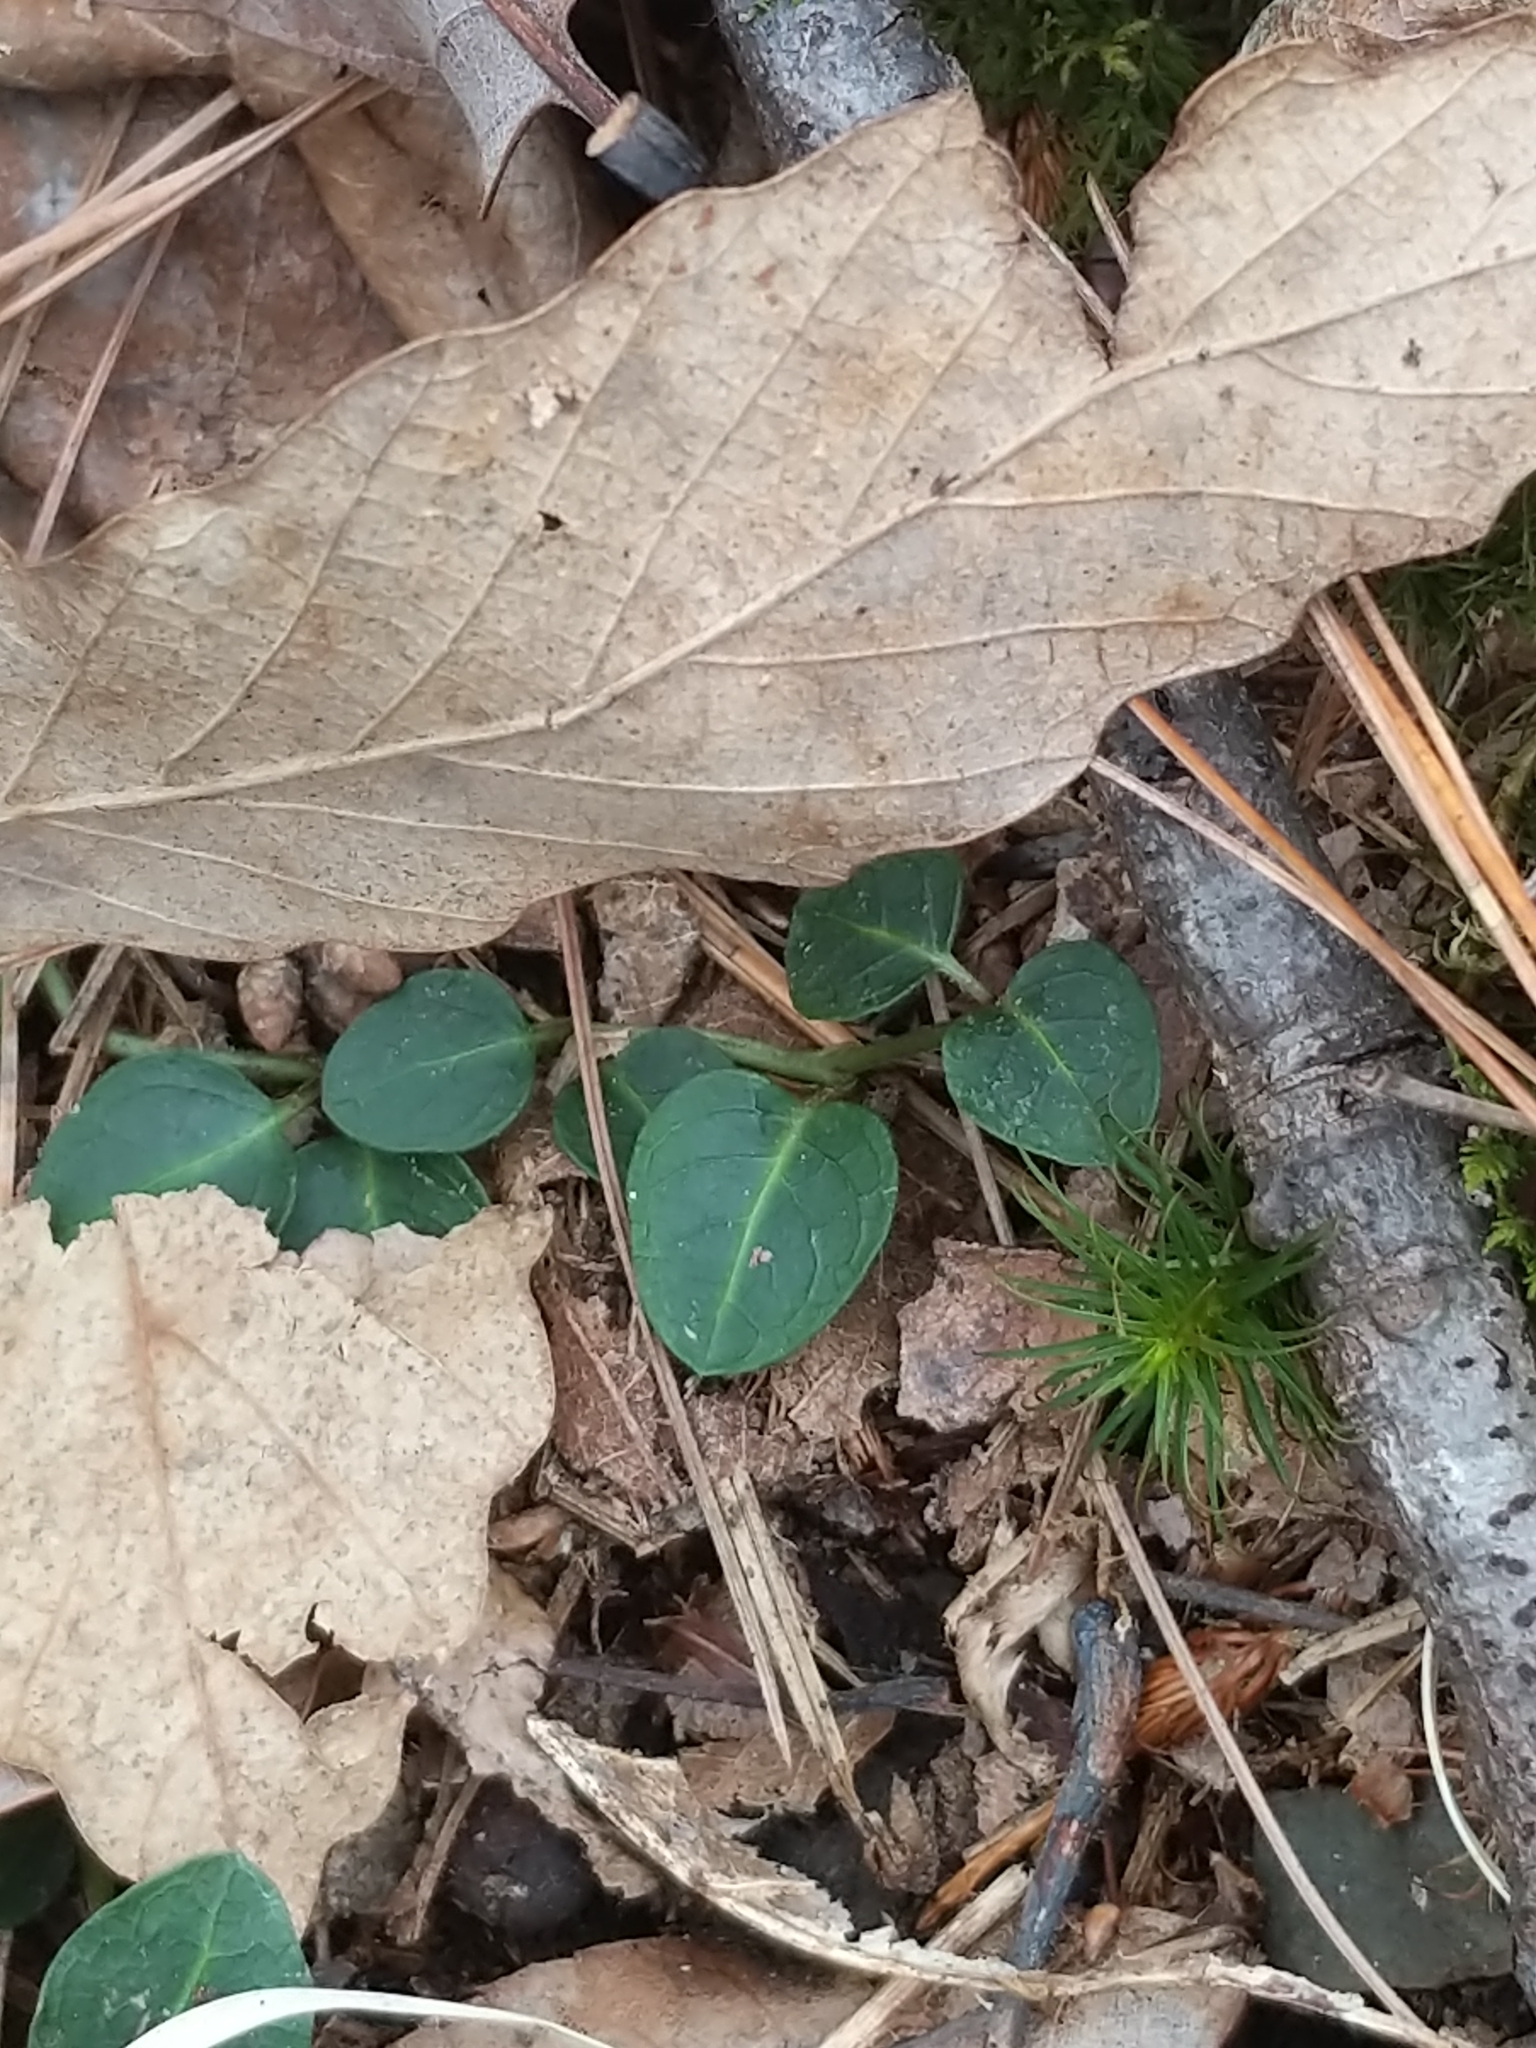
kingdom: Plantae
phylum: Tracheophyta
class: Magnoliopsida
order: Gentianales
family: Rubiaceae
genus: Mitchella
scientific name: Mitchella repens
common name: Partridge-berry
